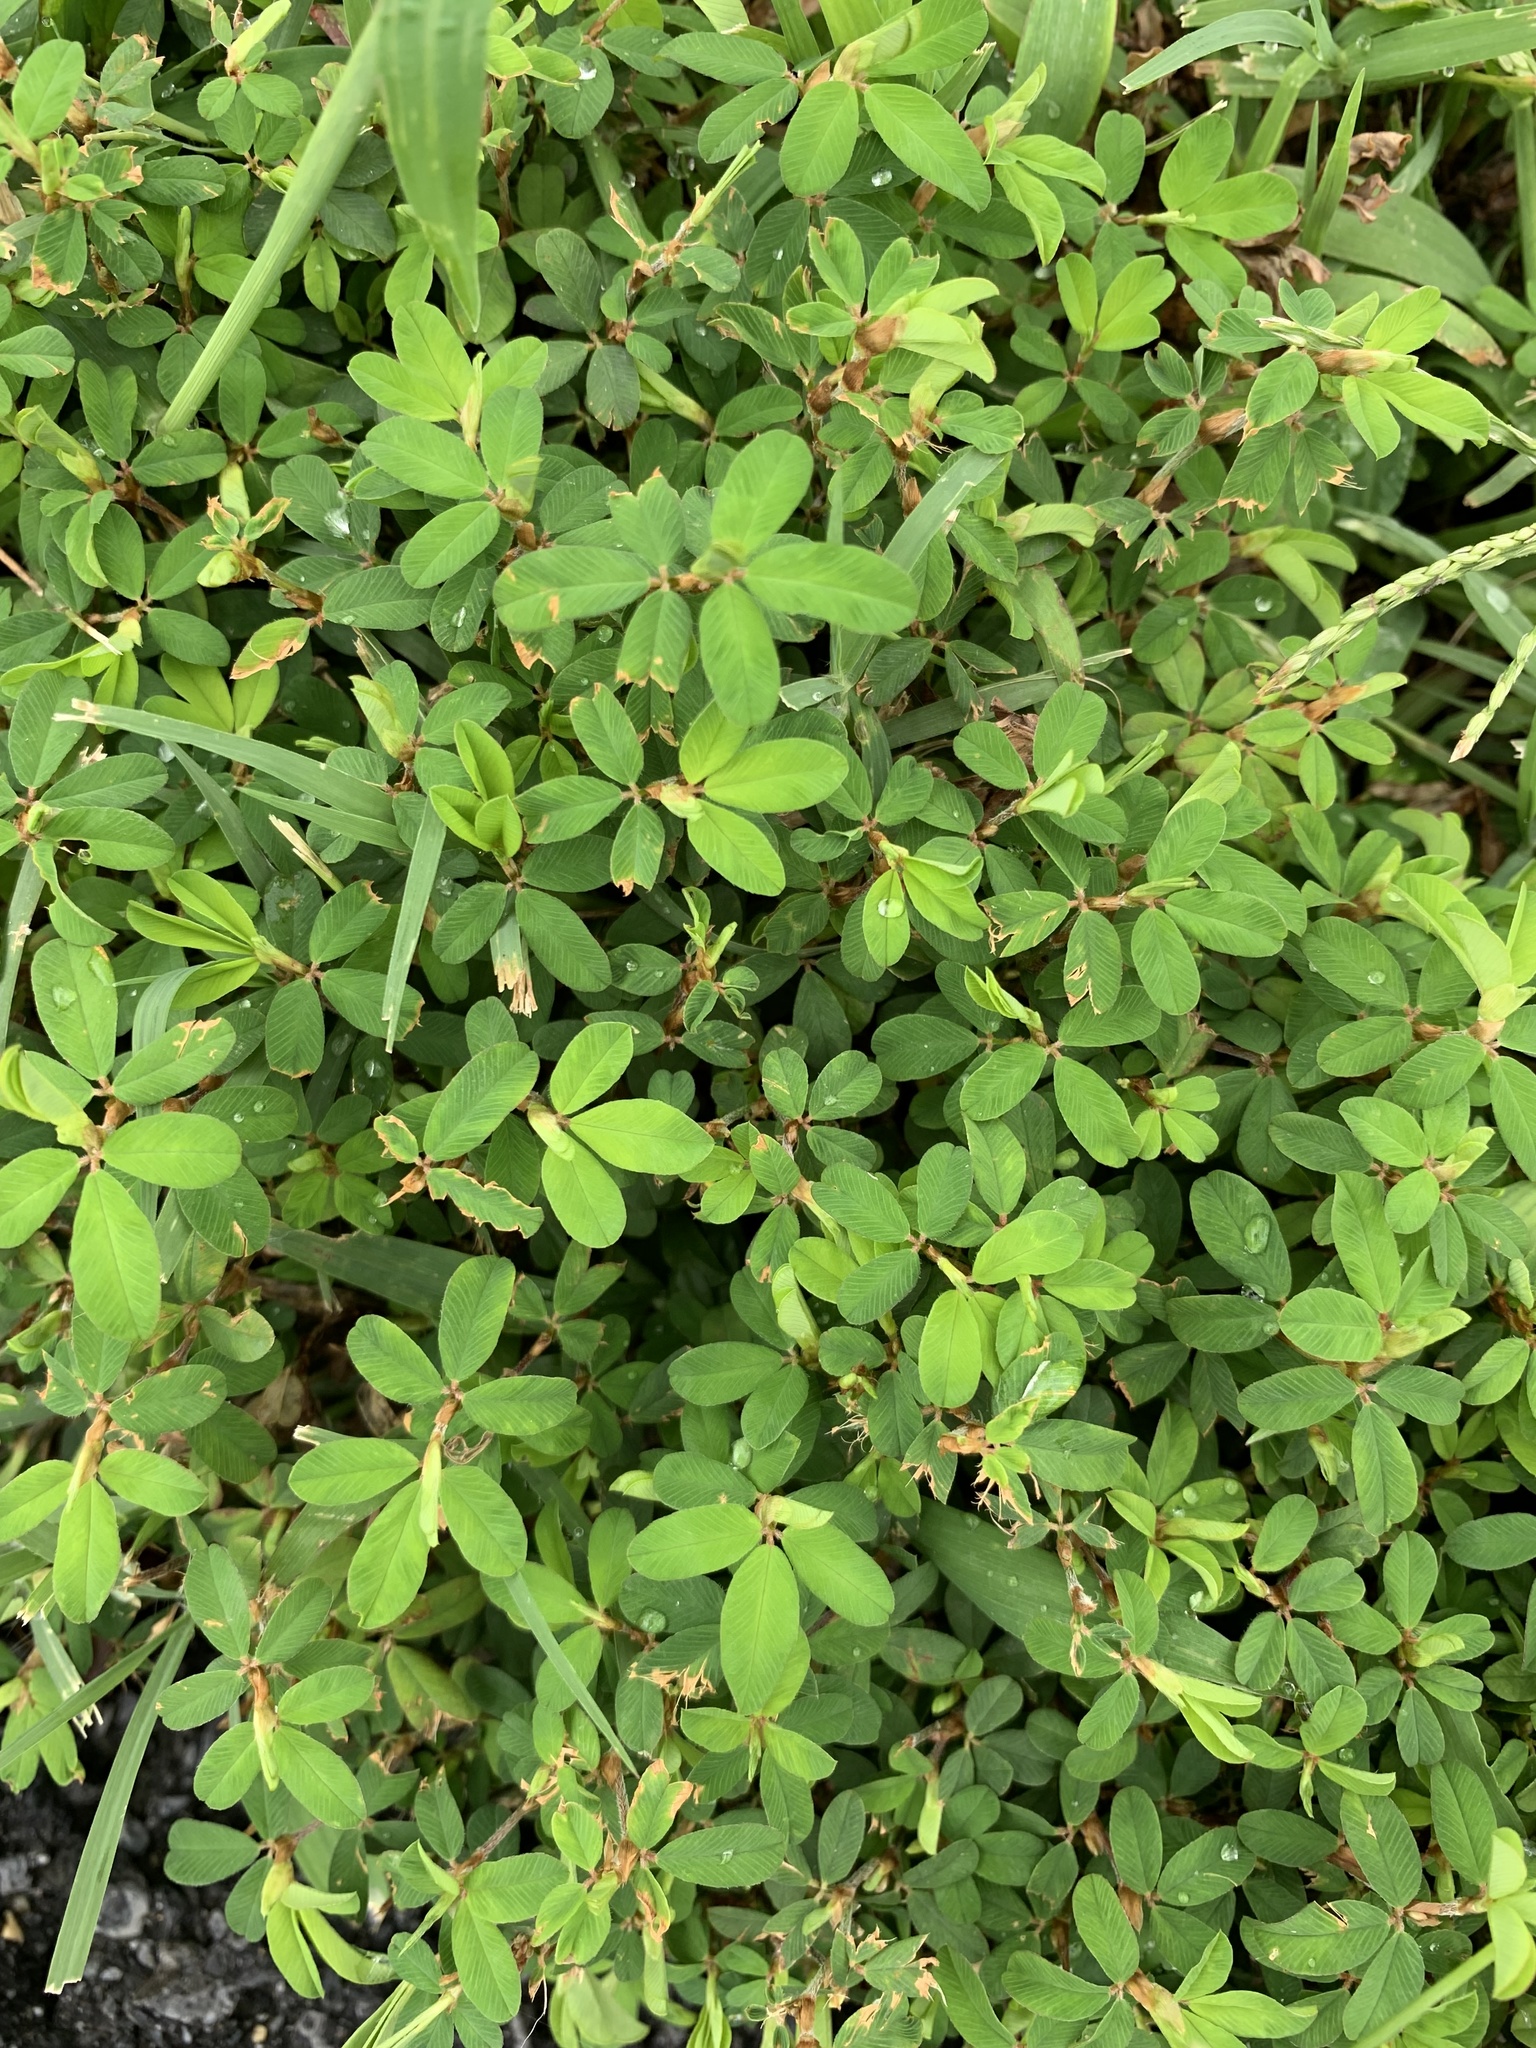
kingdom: Plantae
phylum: Tracheophyta
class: Magnoliopsida
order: Fabales
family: Fabaceae
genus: Kummerowia
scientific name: Kummerowia striata
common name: Japanese clover
